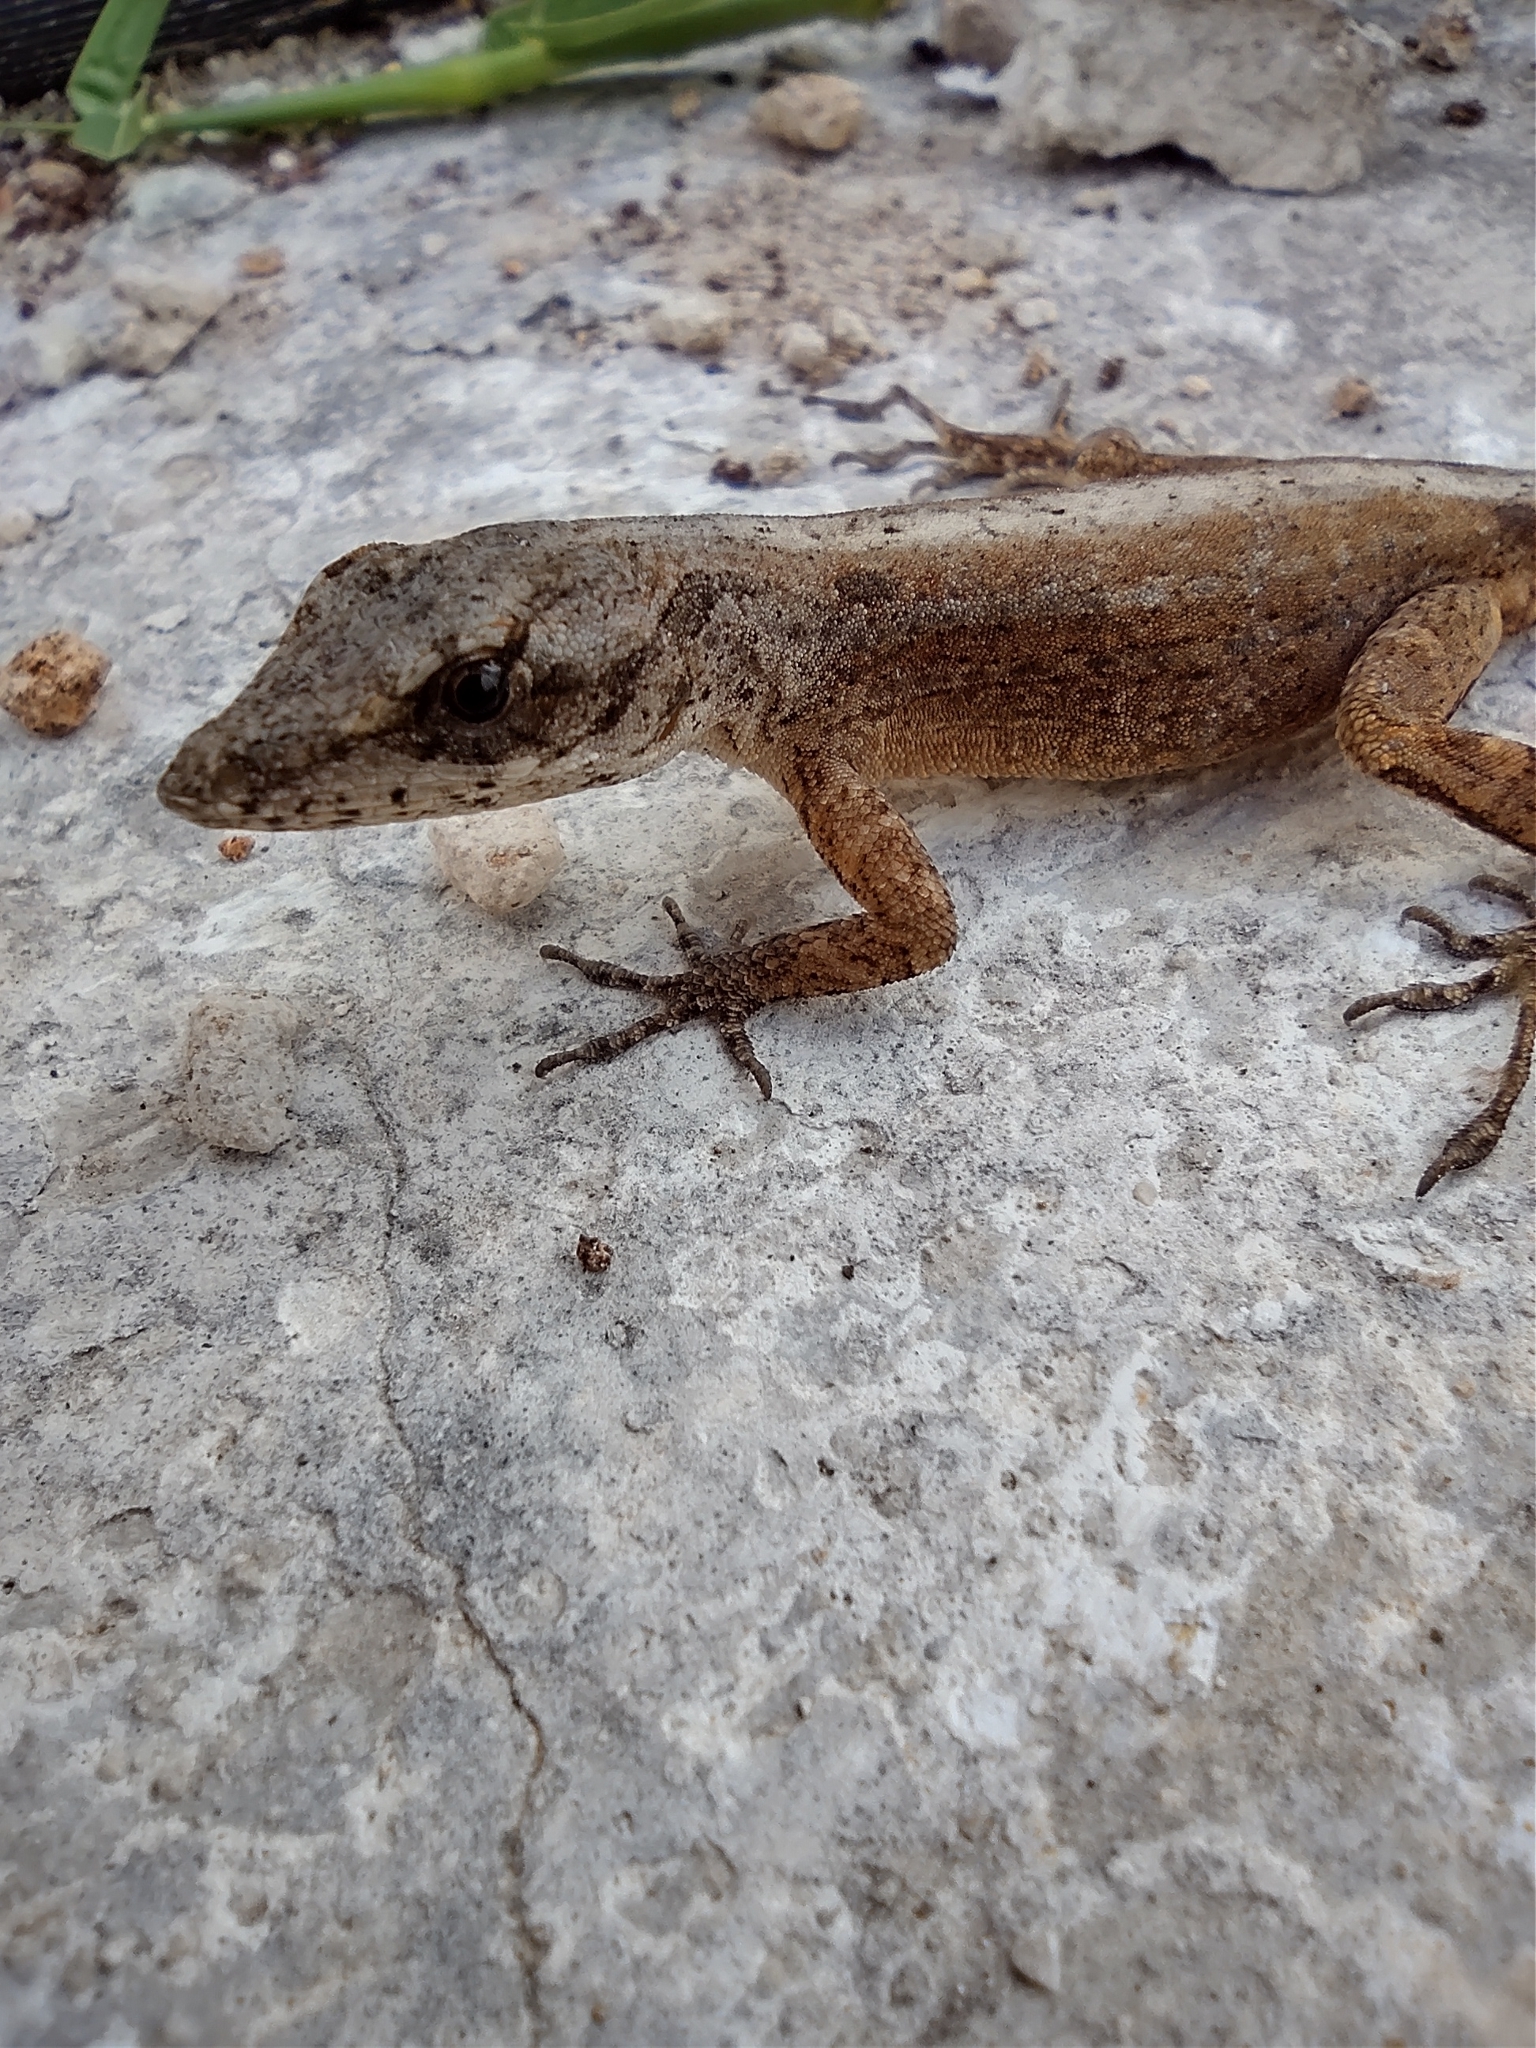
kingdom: Animalia
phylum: Chordata
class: Squamata
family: Dactyloidae
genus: Anolis
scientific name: Anolis sagrei
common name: Brown anole
